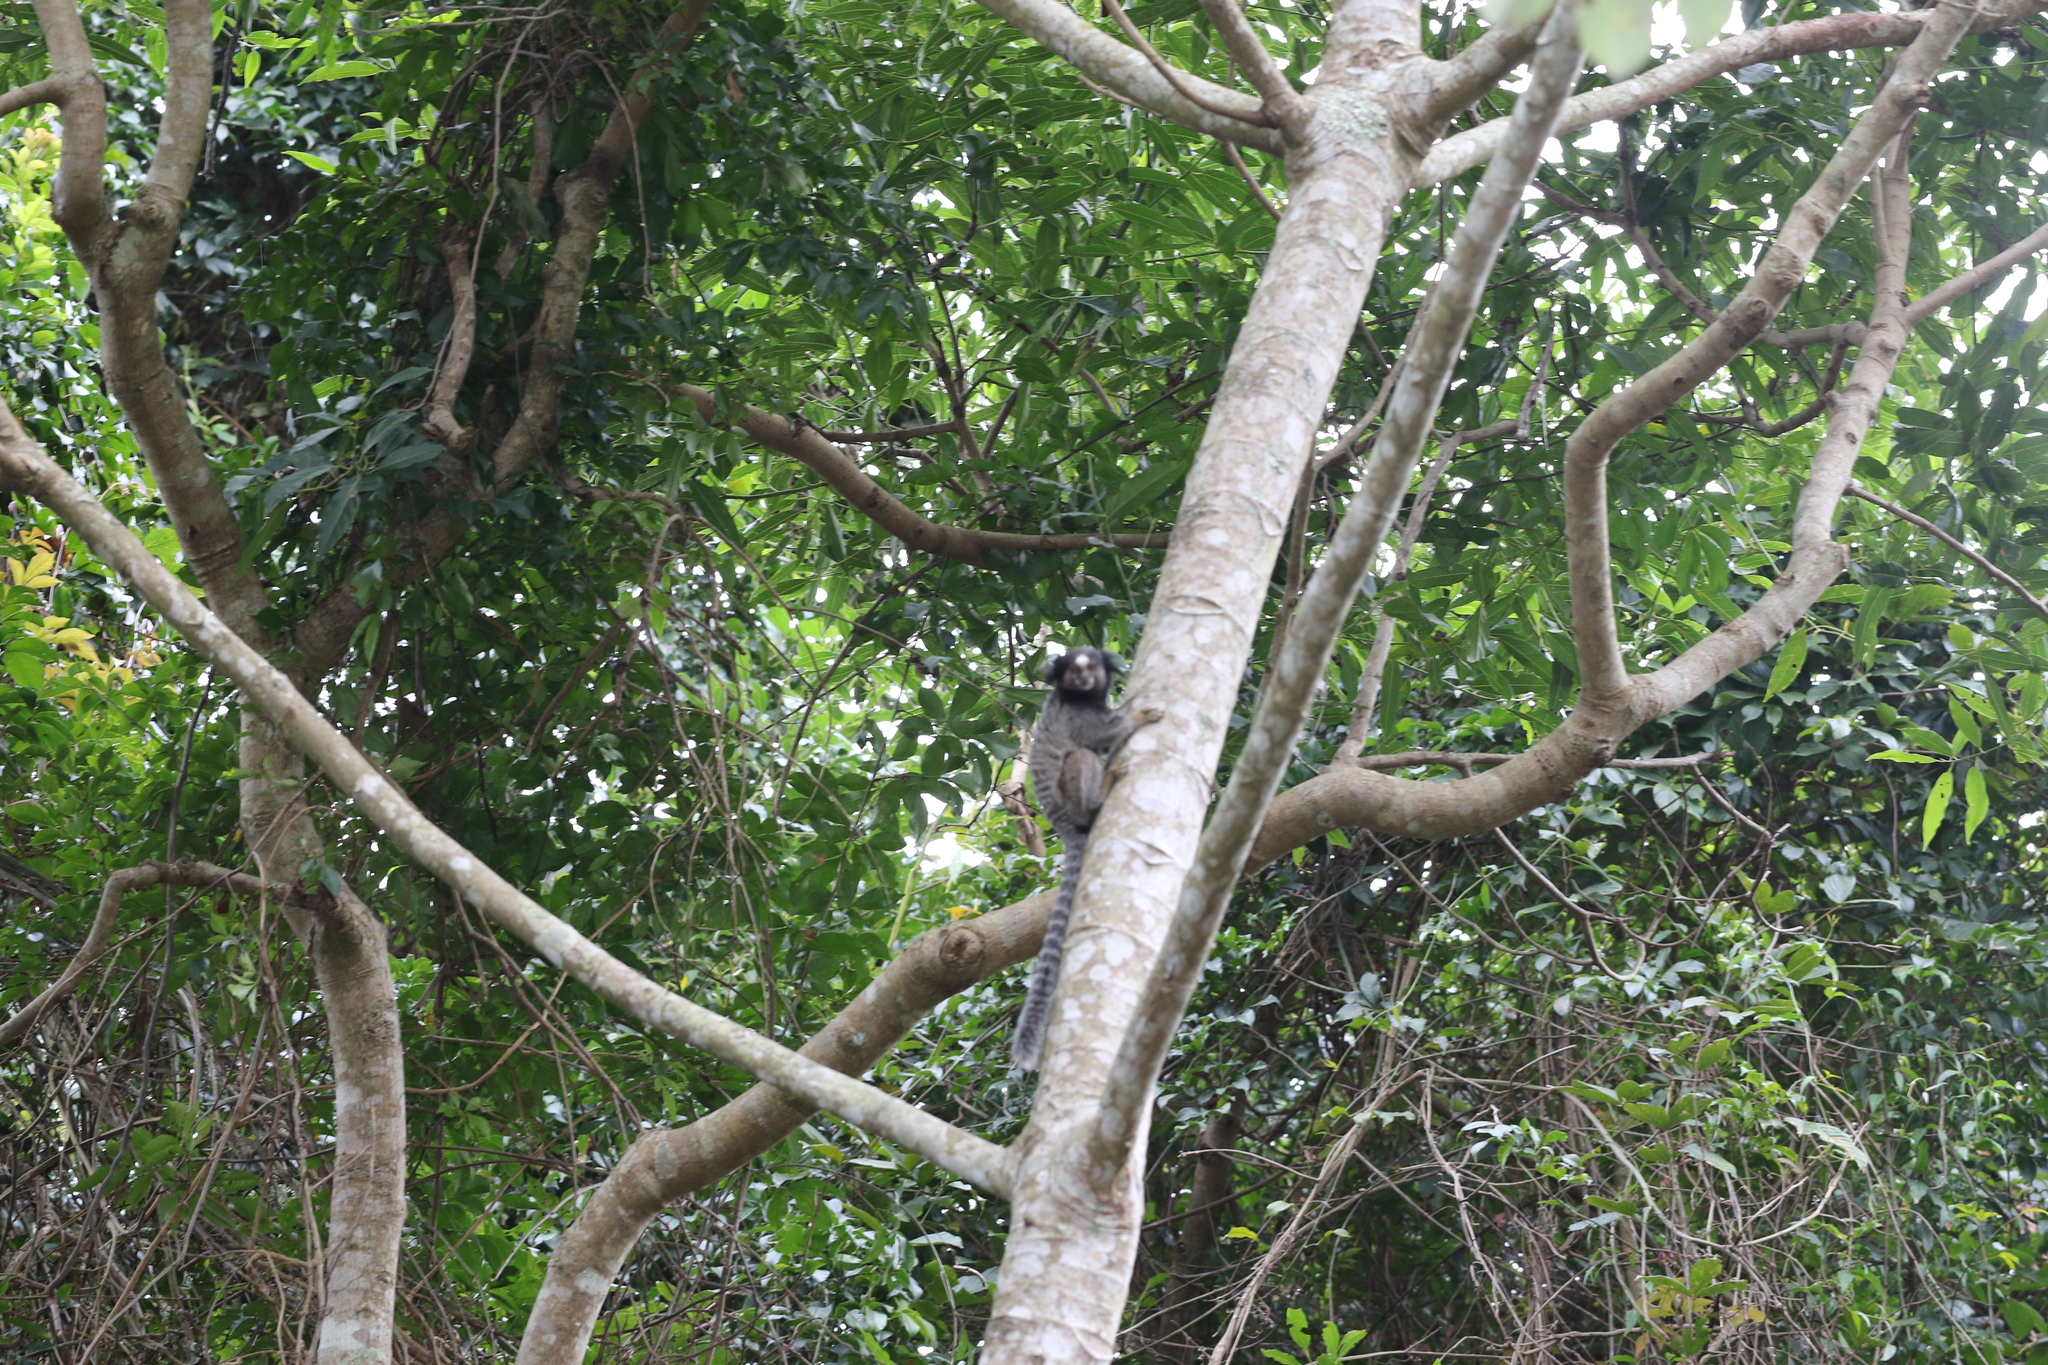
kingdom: Animalia
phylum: Chordata
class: Mammalia
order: Primates
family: Callitrichidae
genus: Callithrix
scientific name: Callithrix penicillata
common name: Black-tufted marmoset
